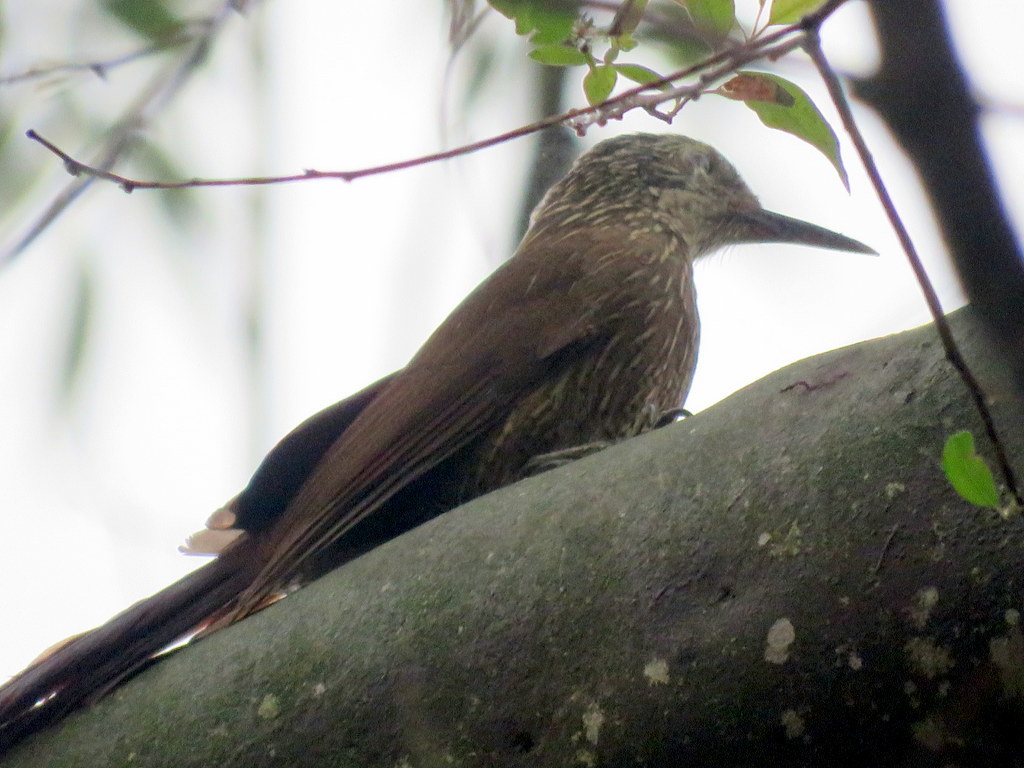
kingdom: Animalia
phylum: Chordata
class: Aves
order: Passeriformes
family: Furnariidae
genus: Dendrocolaptes
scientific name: Dendrocolaptes platyrostris
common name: Planalto woodcreeper
